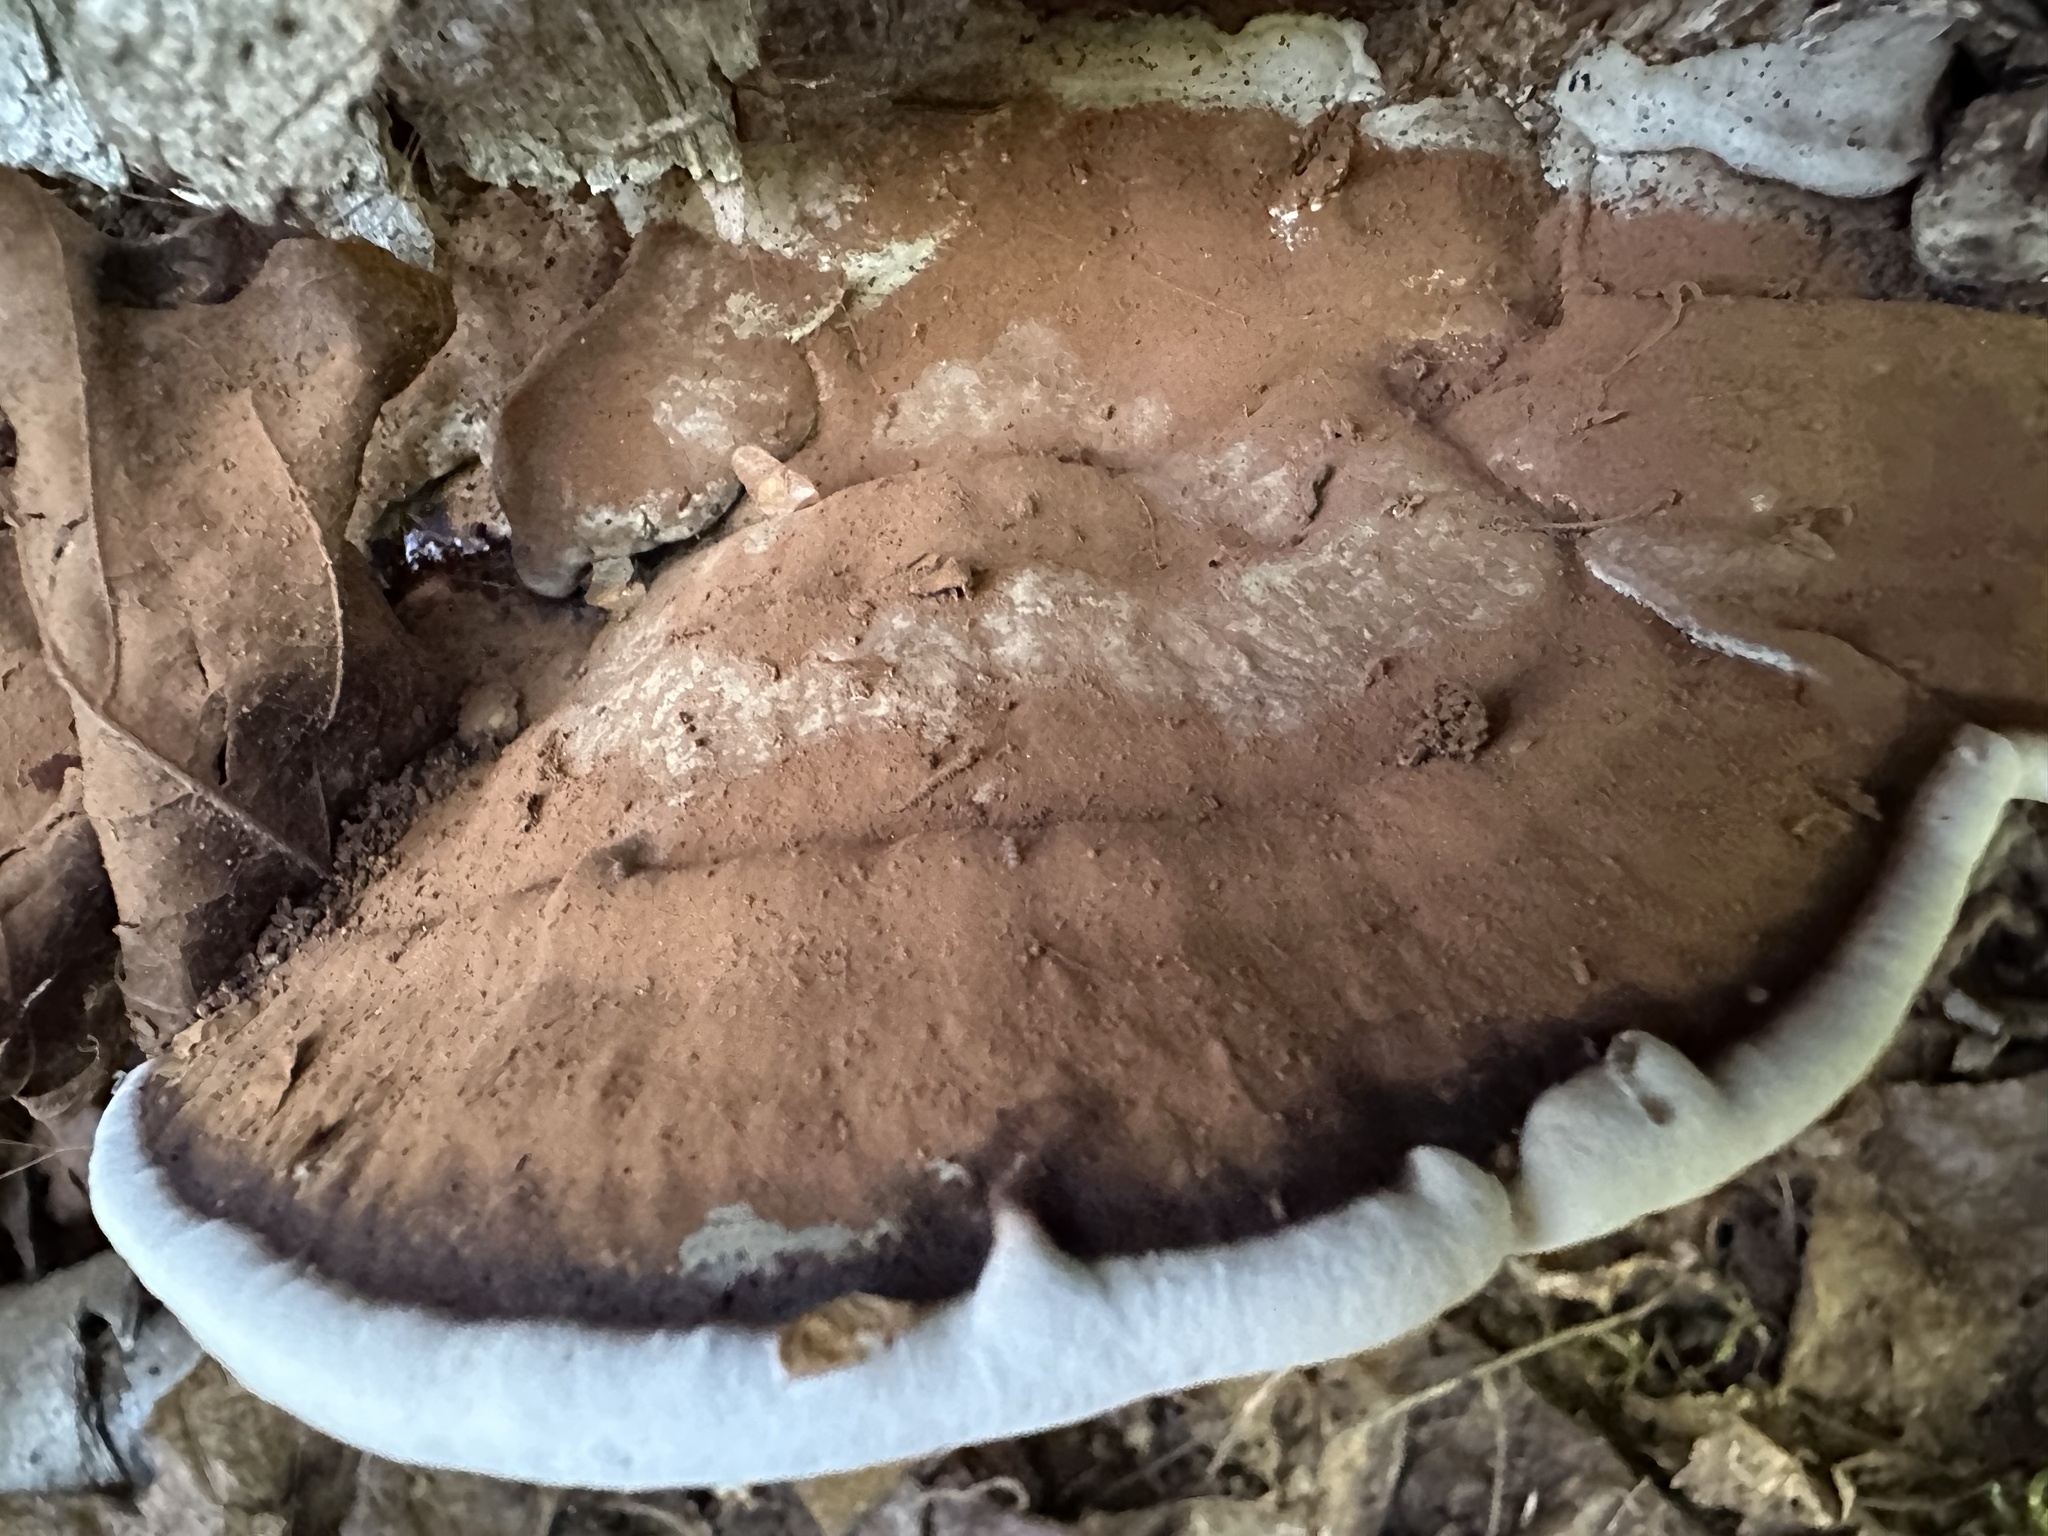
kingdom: Fungi
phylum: Basidiomycota
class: Agaricomycetes
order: Polyporales
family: Polyporaceae
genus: Ganoderma
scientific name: Ganoderma applanatum
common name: Artist's bracket
